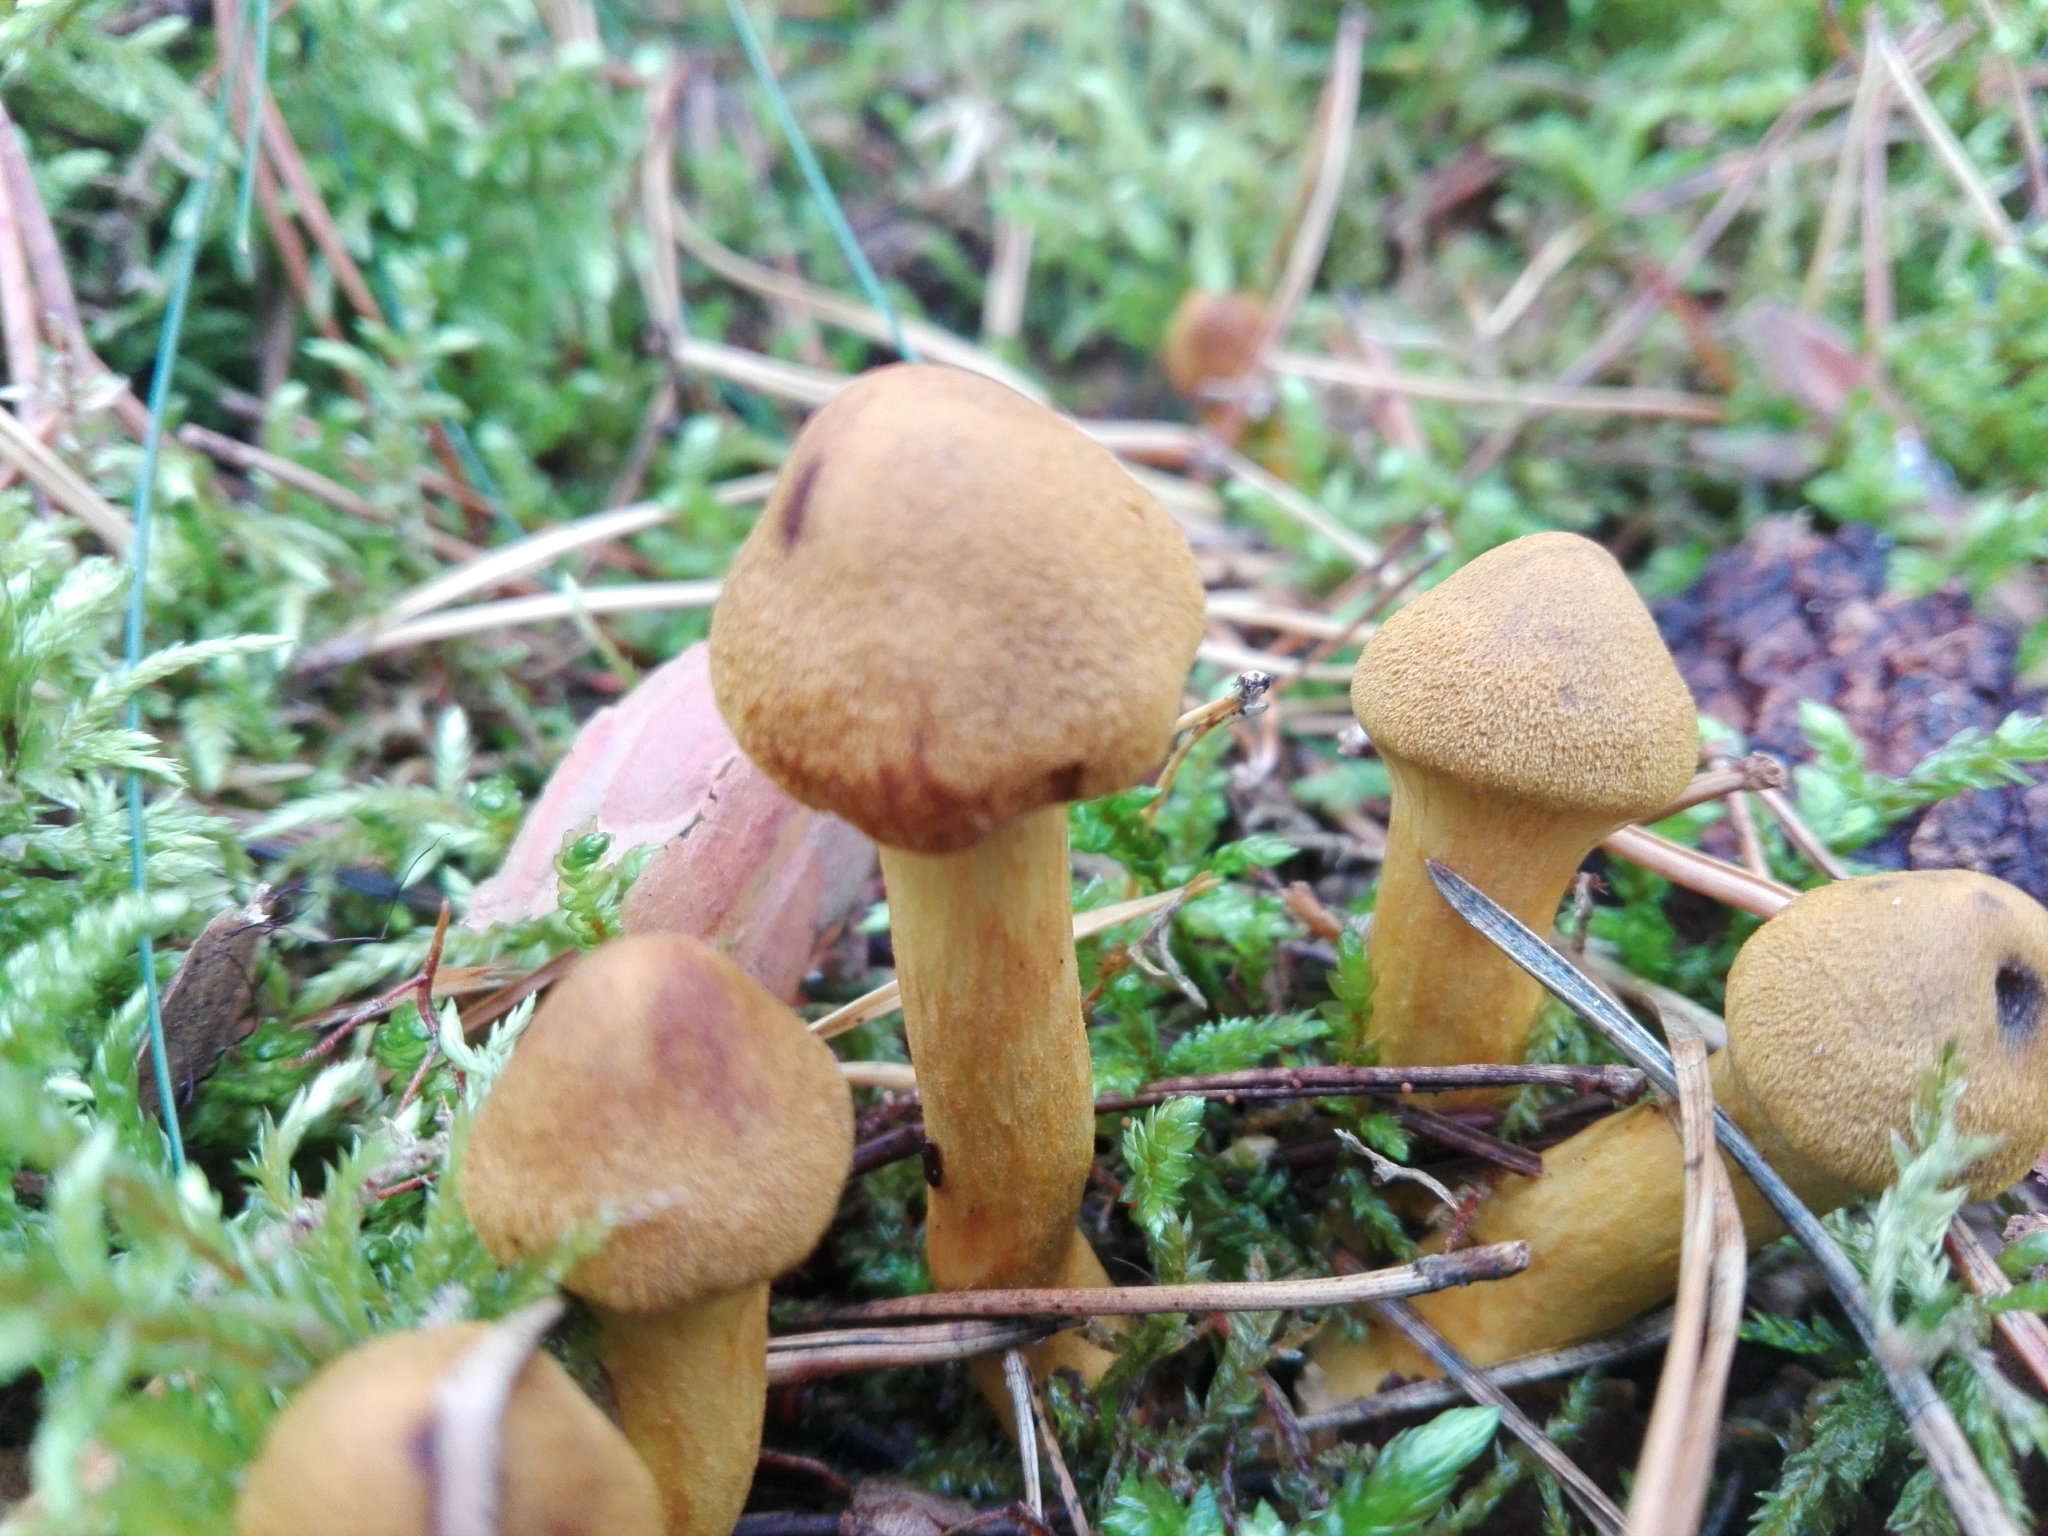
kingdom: Fungi
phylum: Basidiomycota
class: Agaricomycetes
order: Agaricales
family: Cortinariaceae
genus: Cortinarius
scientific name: Cortinarius semisanguineus
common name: Surprise webcap
